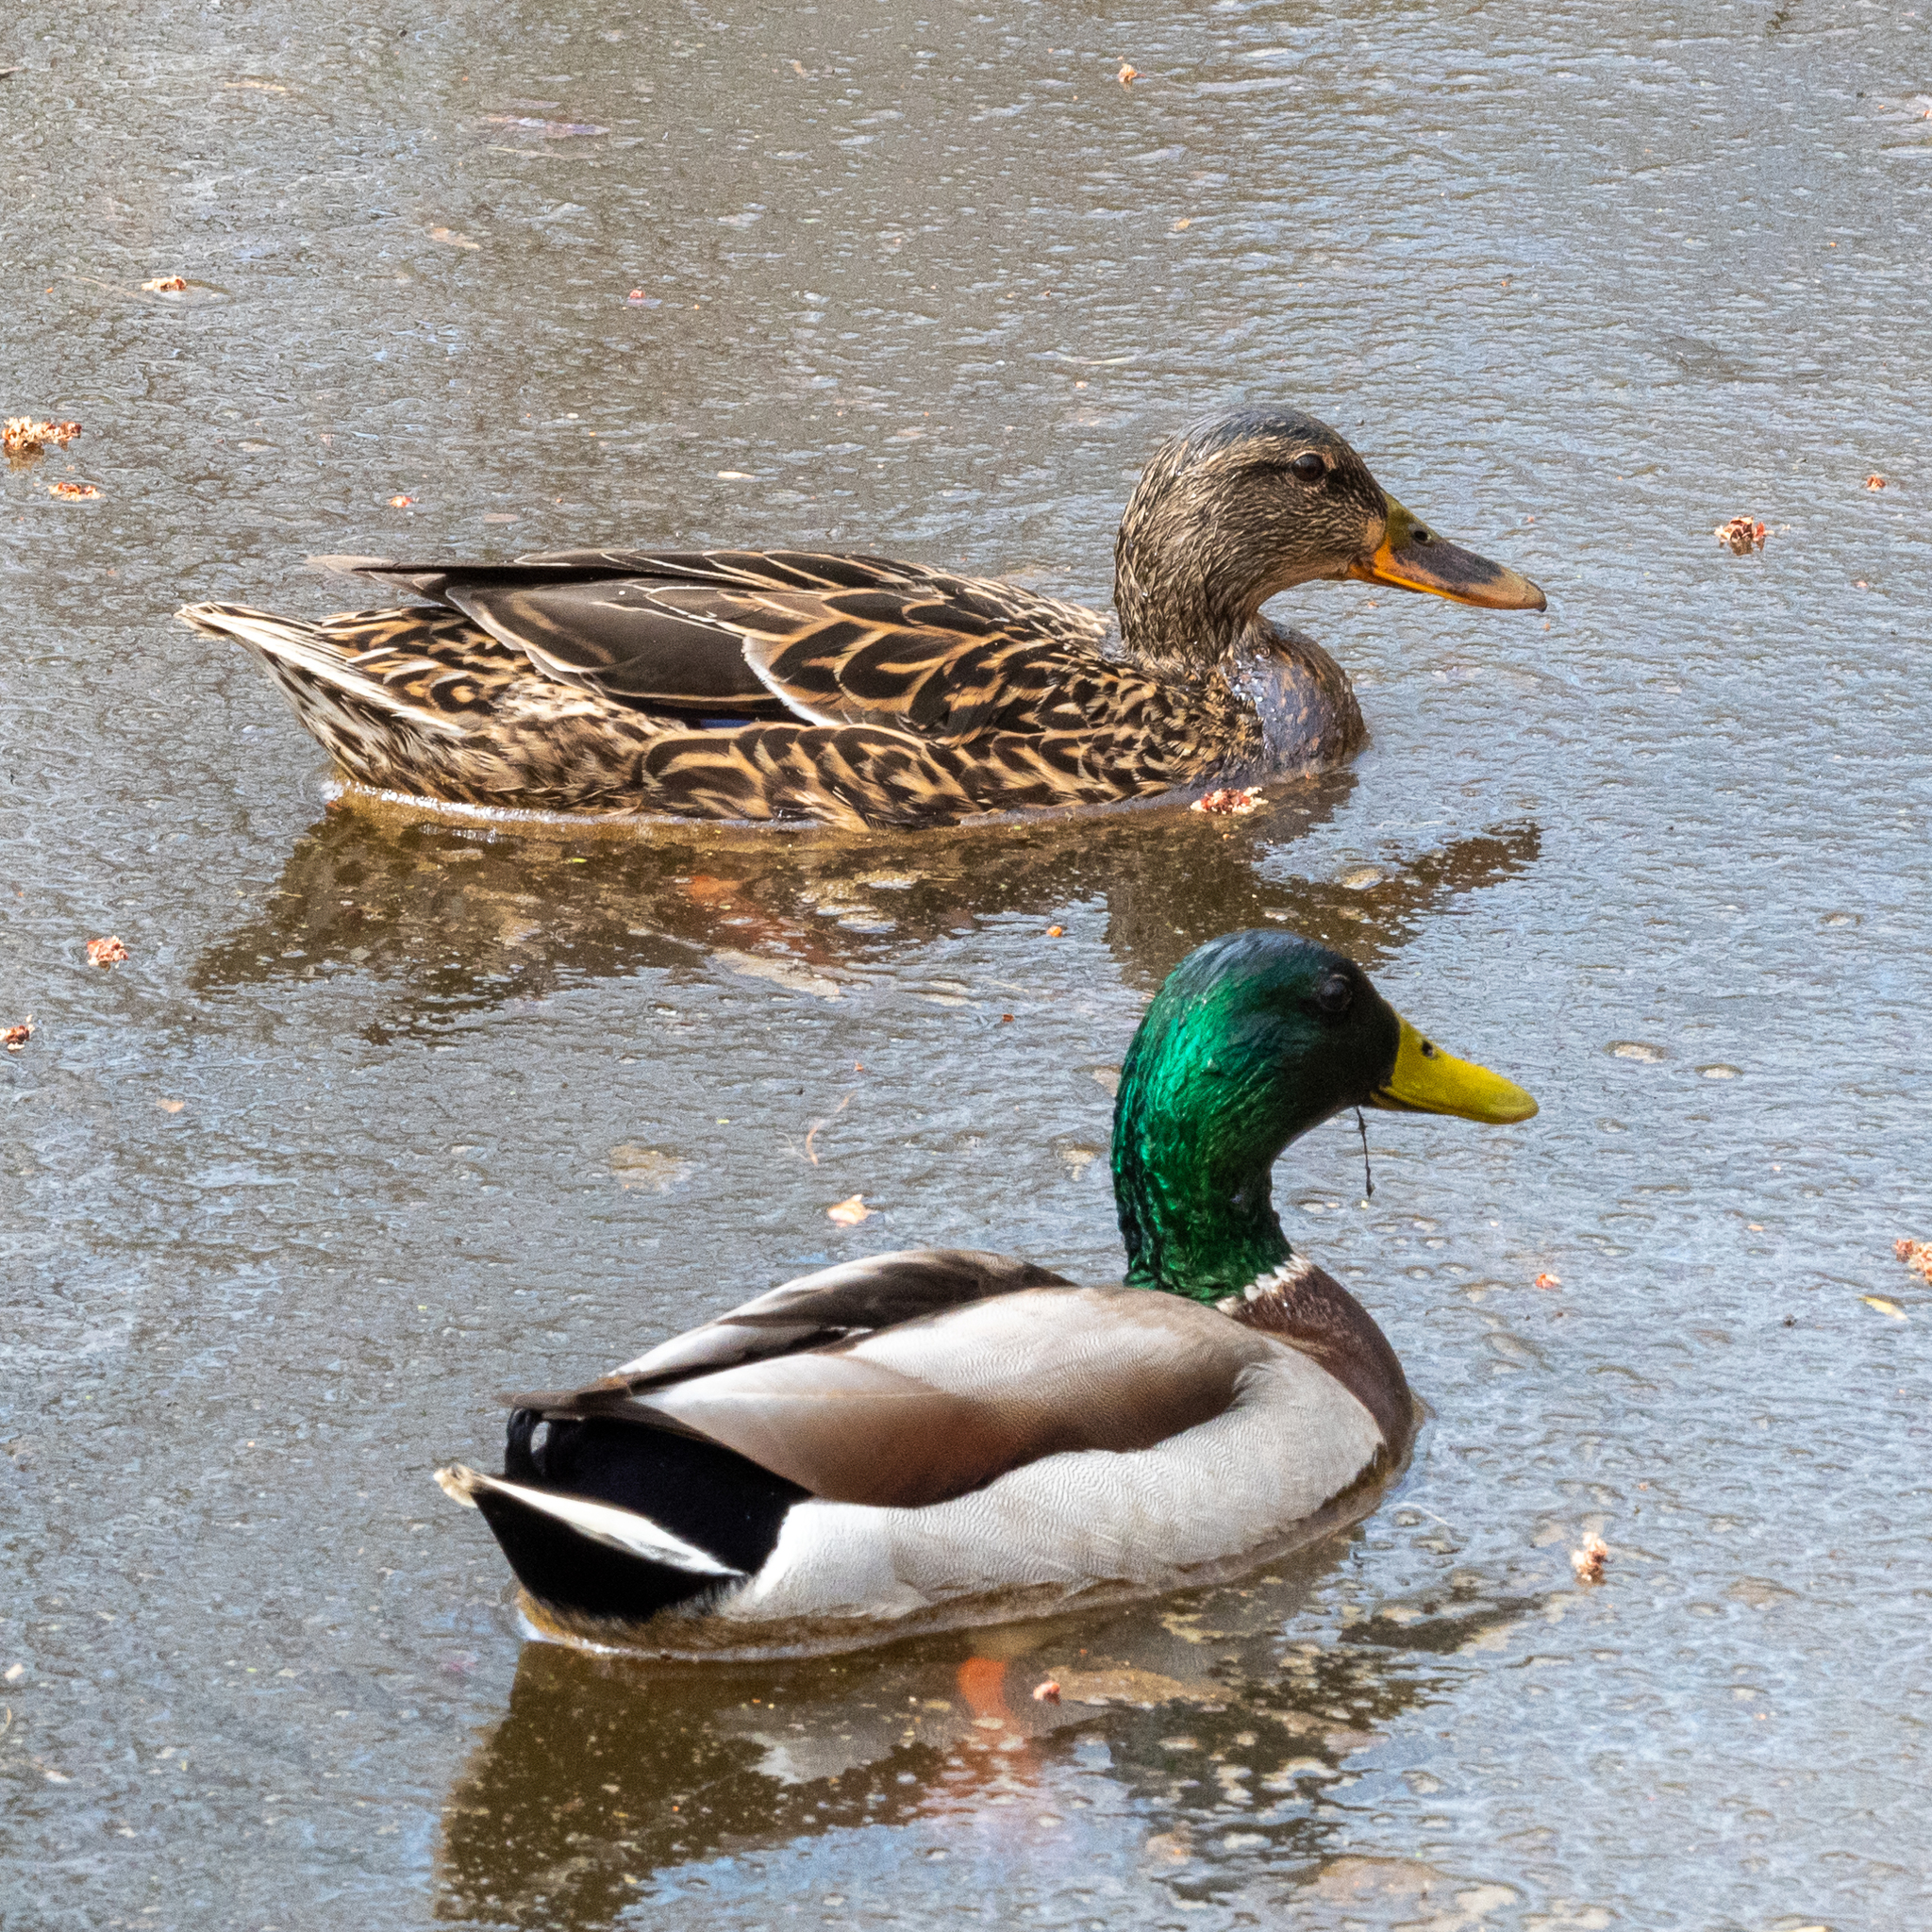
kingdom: Animalia
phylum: Chordata
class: Aves
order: Anseriformes
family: Anatidae
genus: Anas
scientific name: Anas platyrhynchos
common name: Mallard
